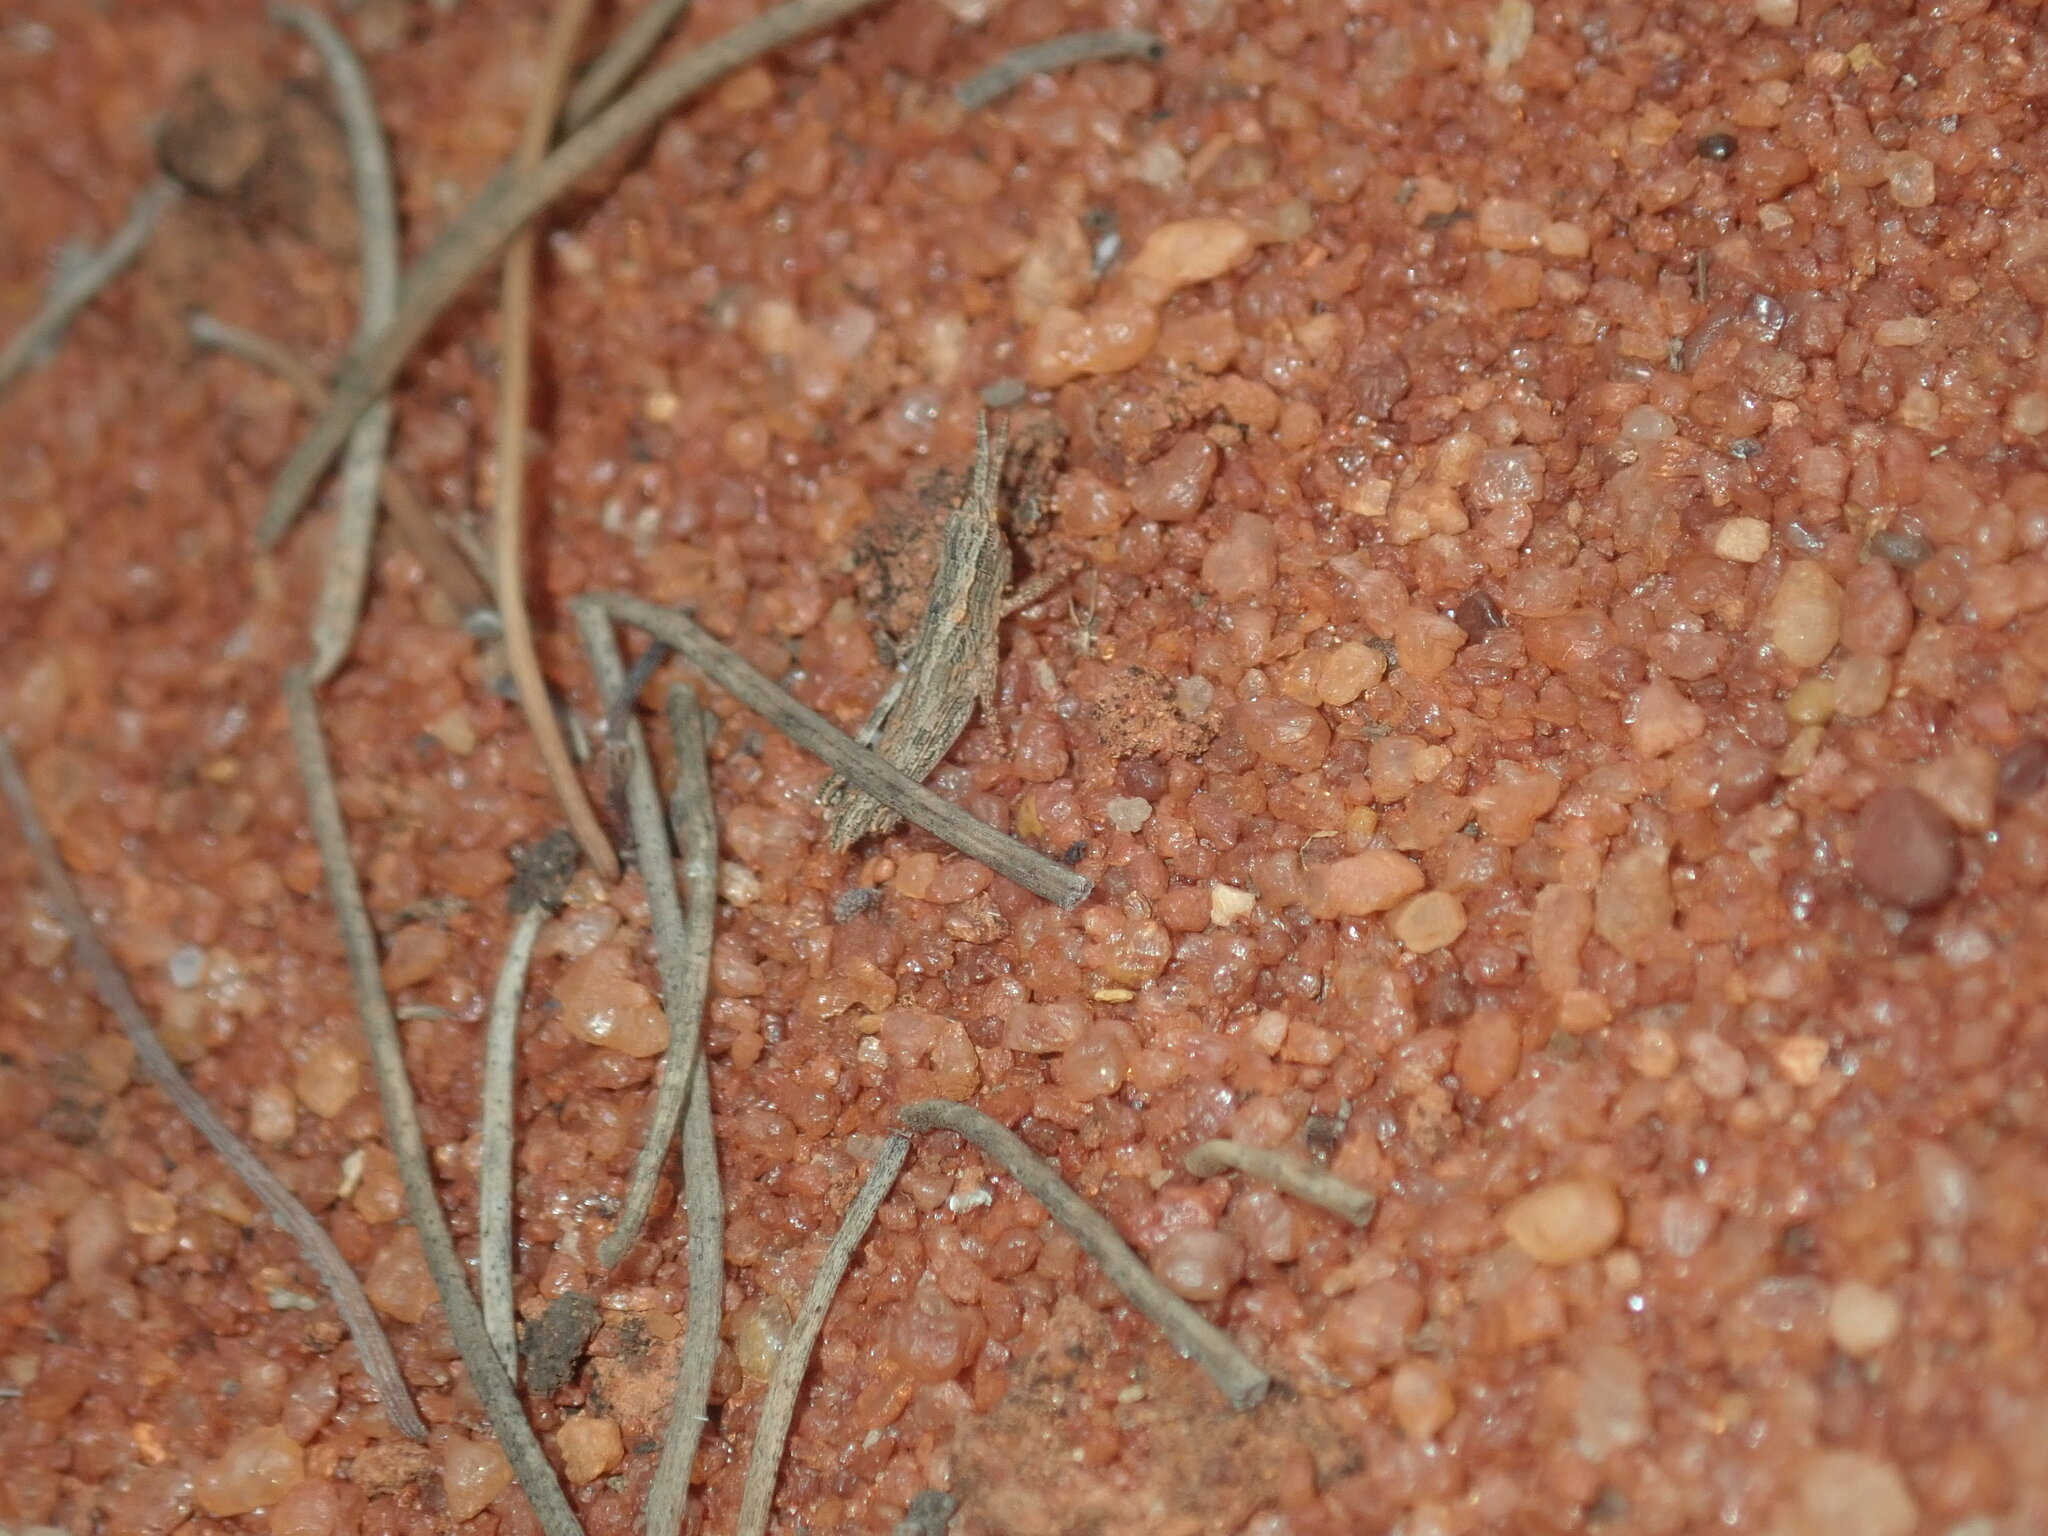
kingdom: Animalia
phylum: Arthropoda
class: Insecta
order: Orthoptera
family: Acrididae
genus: Coryphistes
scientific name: Coryphistes ruricola
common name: Bark-mimicking grasshopper
